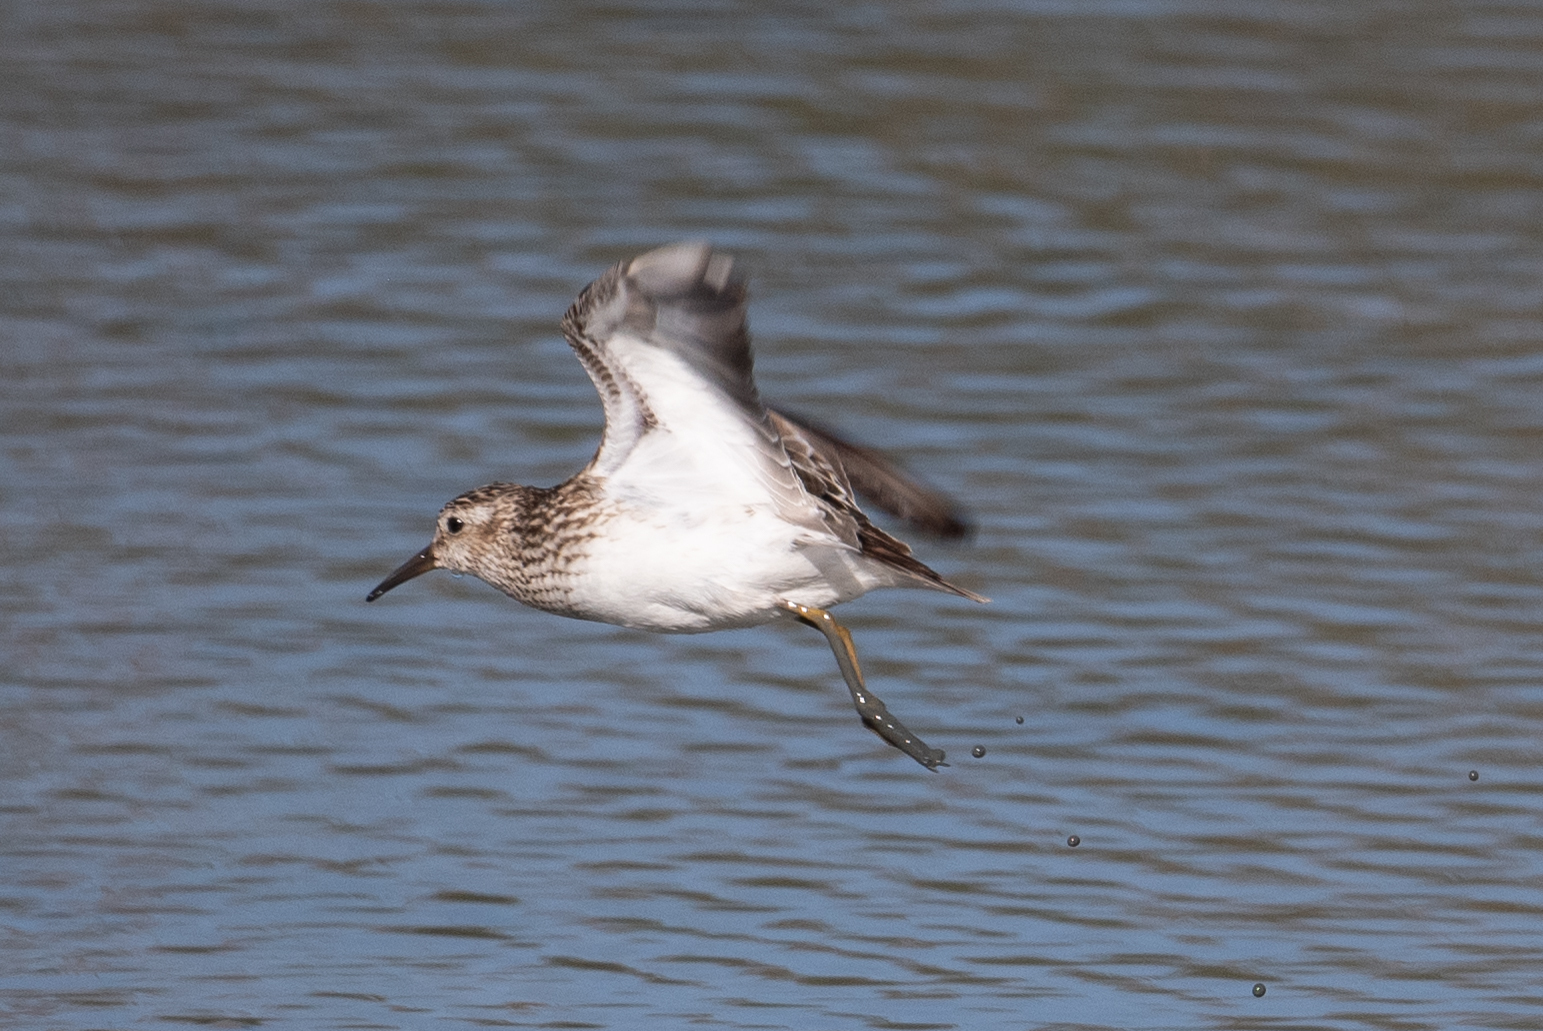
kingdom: Animalia
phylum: Chordata
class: Aves
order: Charadriiformes
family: Scolopacidae
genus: Calidris
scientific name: Calidris minutilla
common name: Least sandpiper
